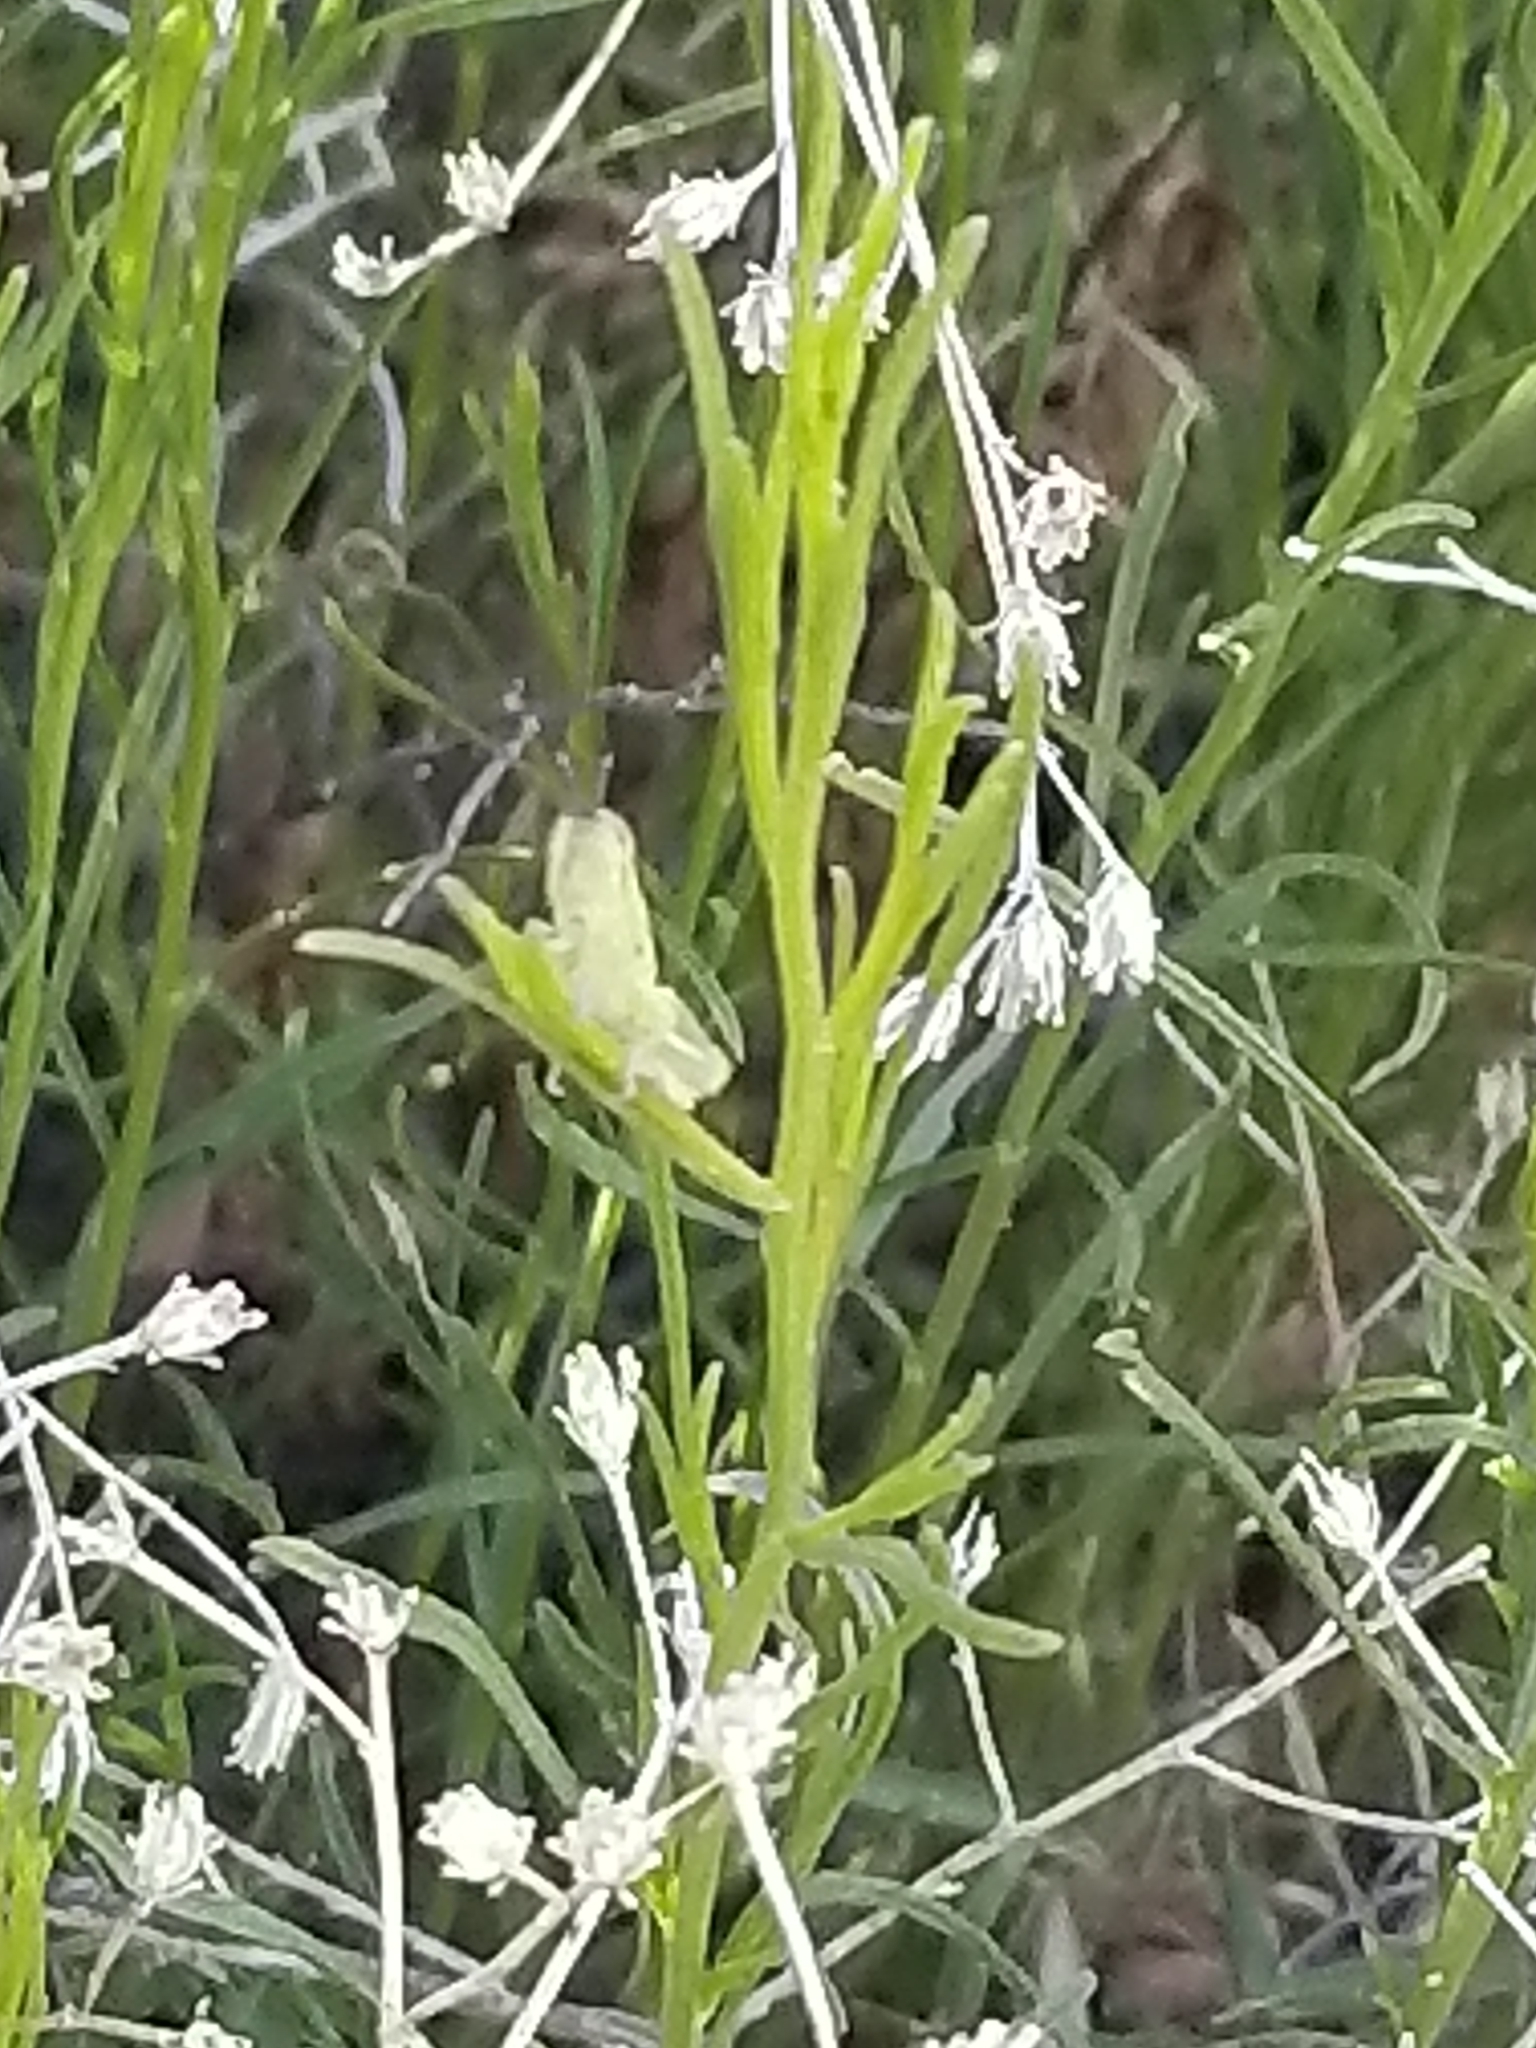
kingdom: Plantae
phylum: Tracheophyta
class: Magnoliopsida
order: Rosales
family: Rosaceae
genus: Adenostoma
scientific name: Adenostoma sparsifolium
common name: Red shank
